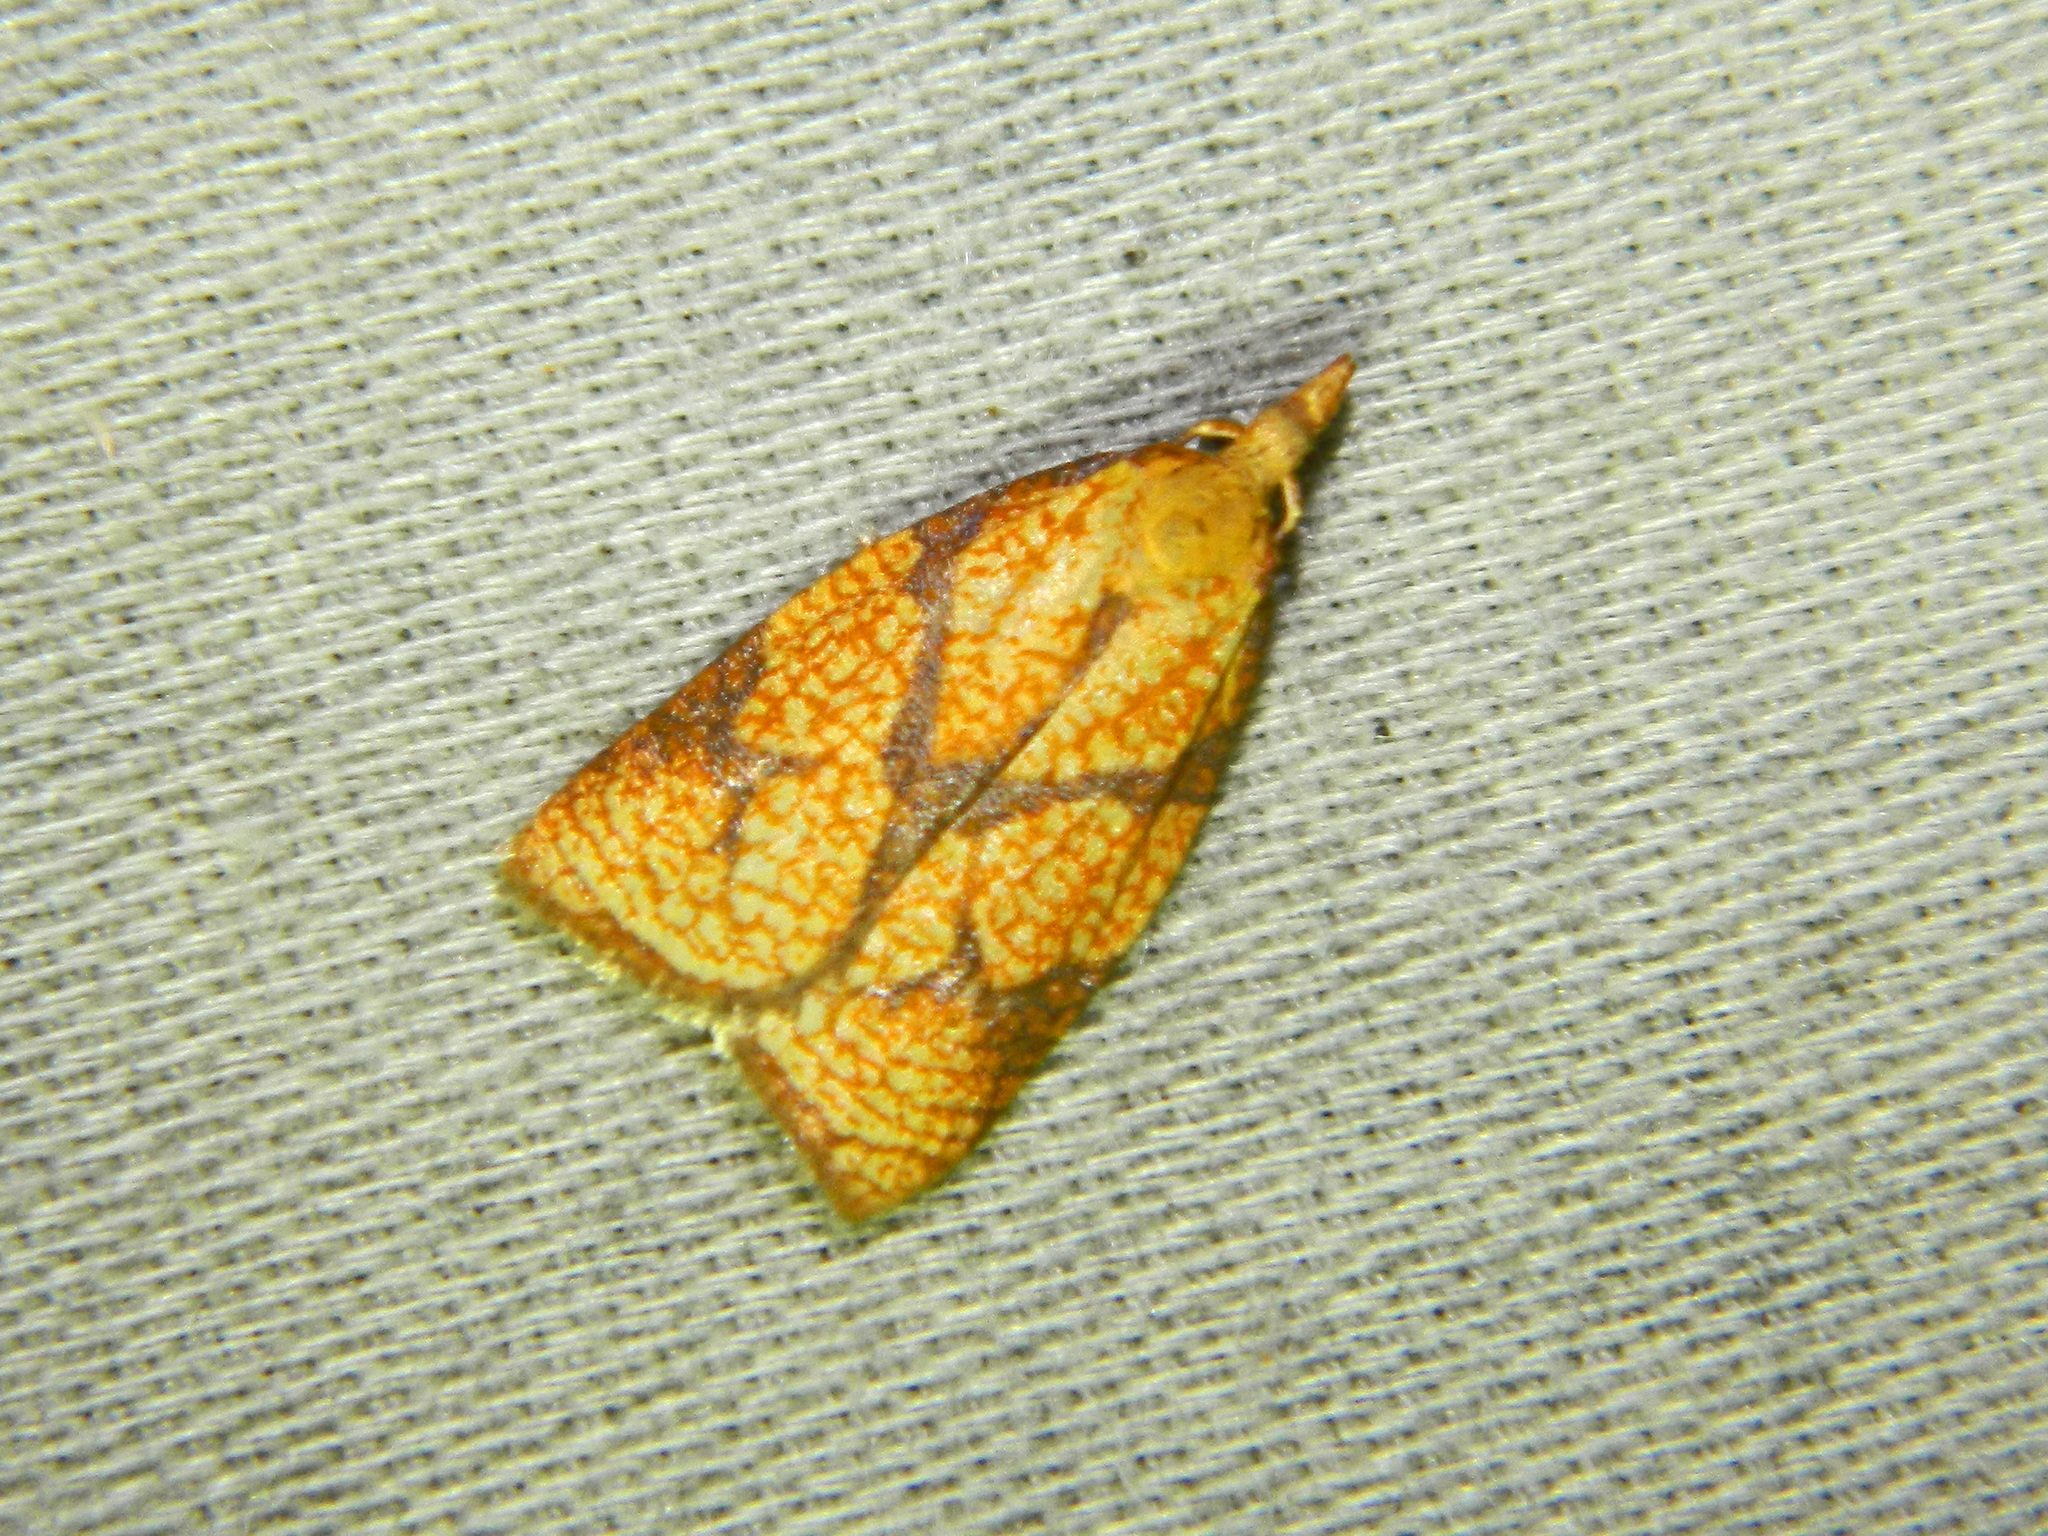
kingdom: Animalia
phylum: Arthropoda
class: Insecta
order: Lepidoptera
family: Tortricidae
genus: Cenopis
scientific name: Cenopis reticulatana
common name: Reticulated fruitworm moth
